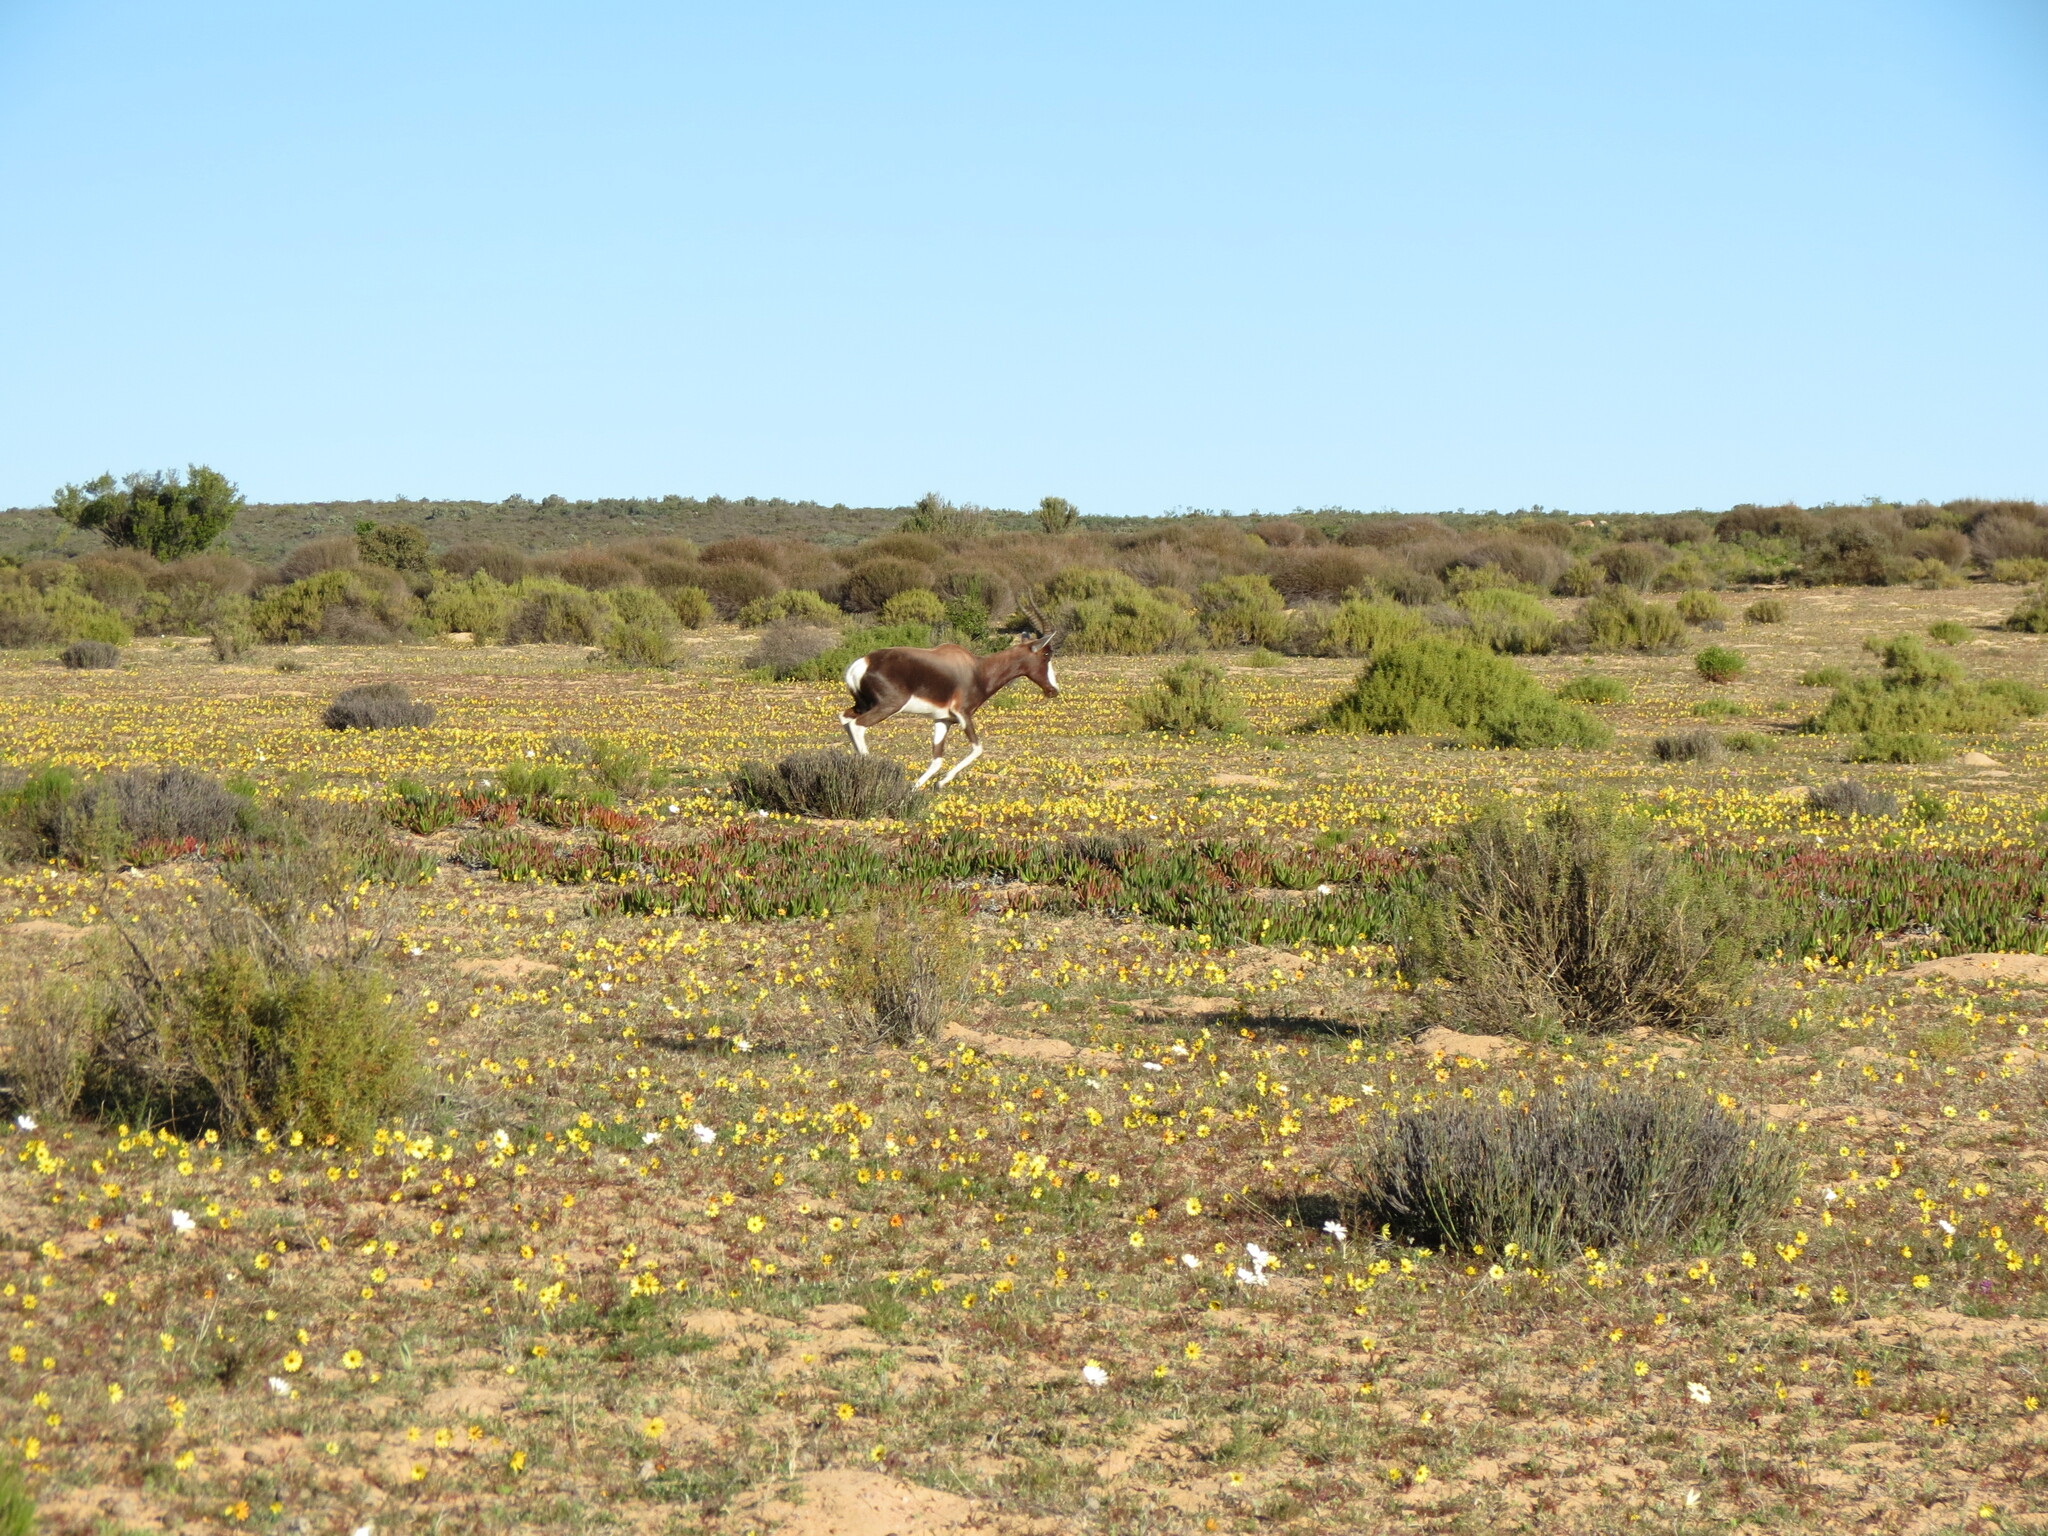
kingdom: Animalia
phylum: Chordata
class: Mammalia
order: Artiodactyla
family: Bovidae
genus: Damaliscus
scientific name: Damaliscus pygargus
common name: Bontebok
